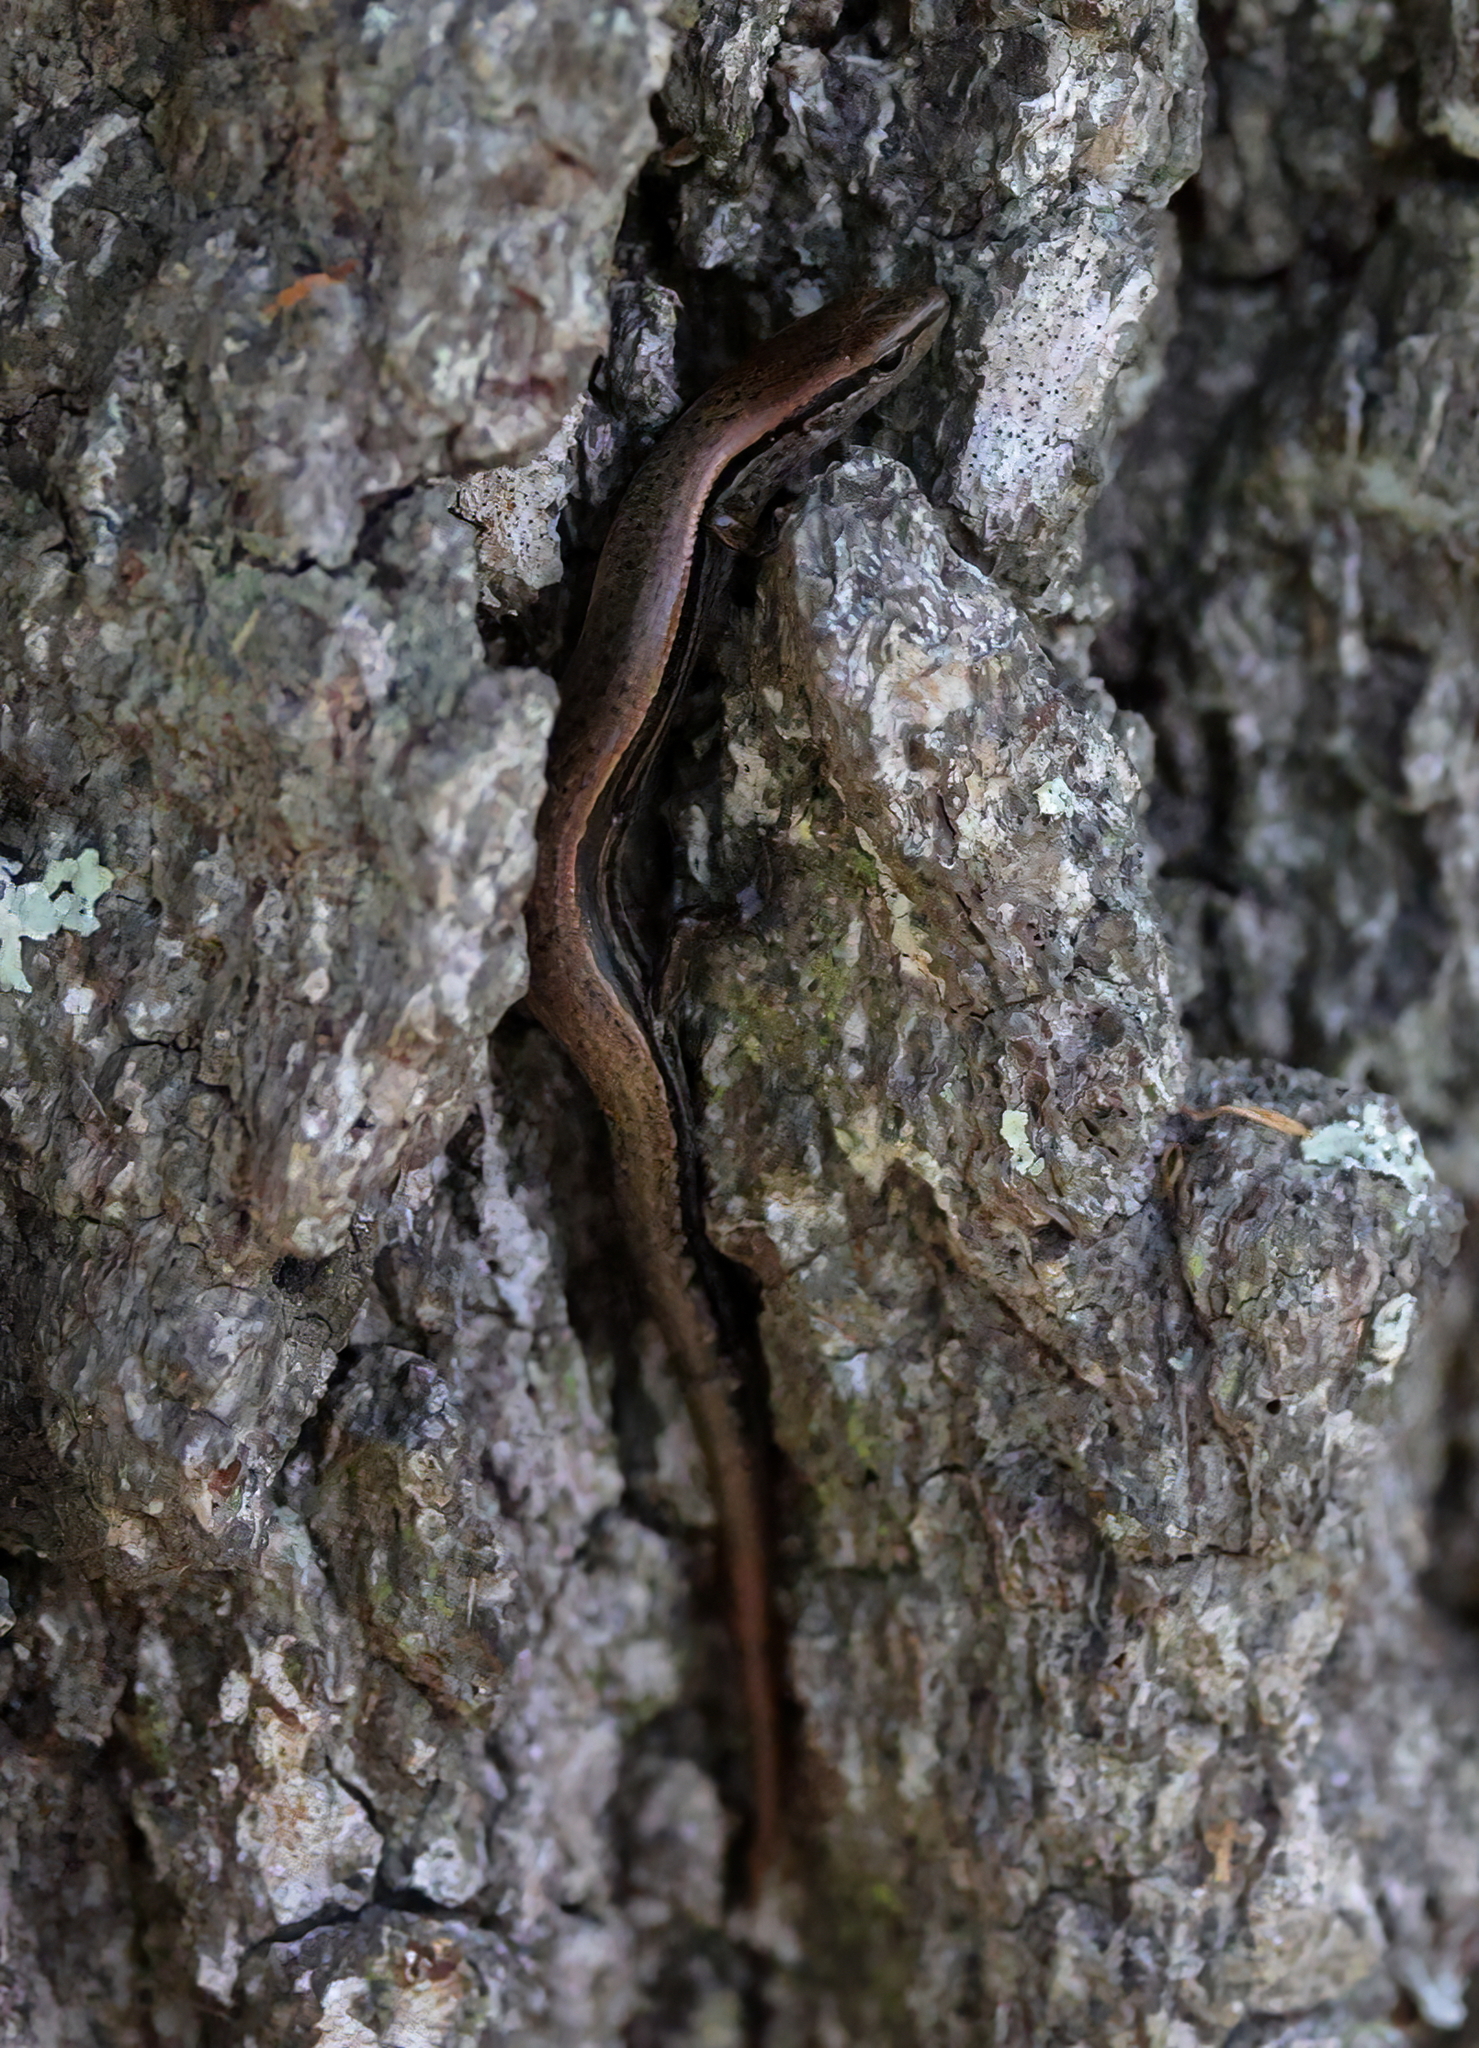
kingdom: Animalia
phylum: Chordata
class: Squamata
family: Scincidae
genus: Scincella
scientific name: Scincella lateralis
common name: Ground skink
